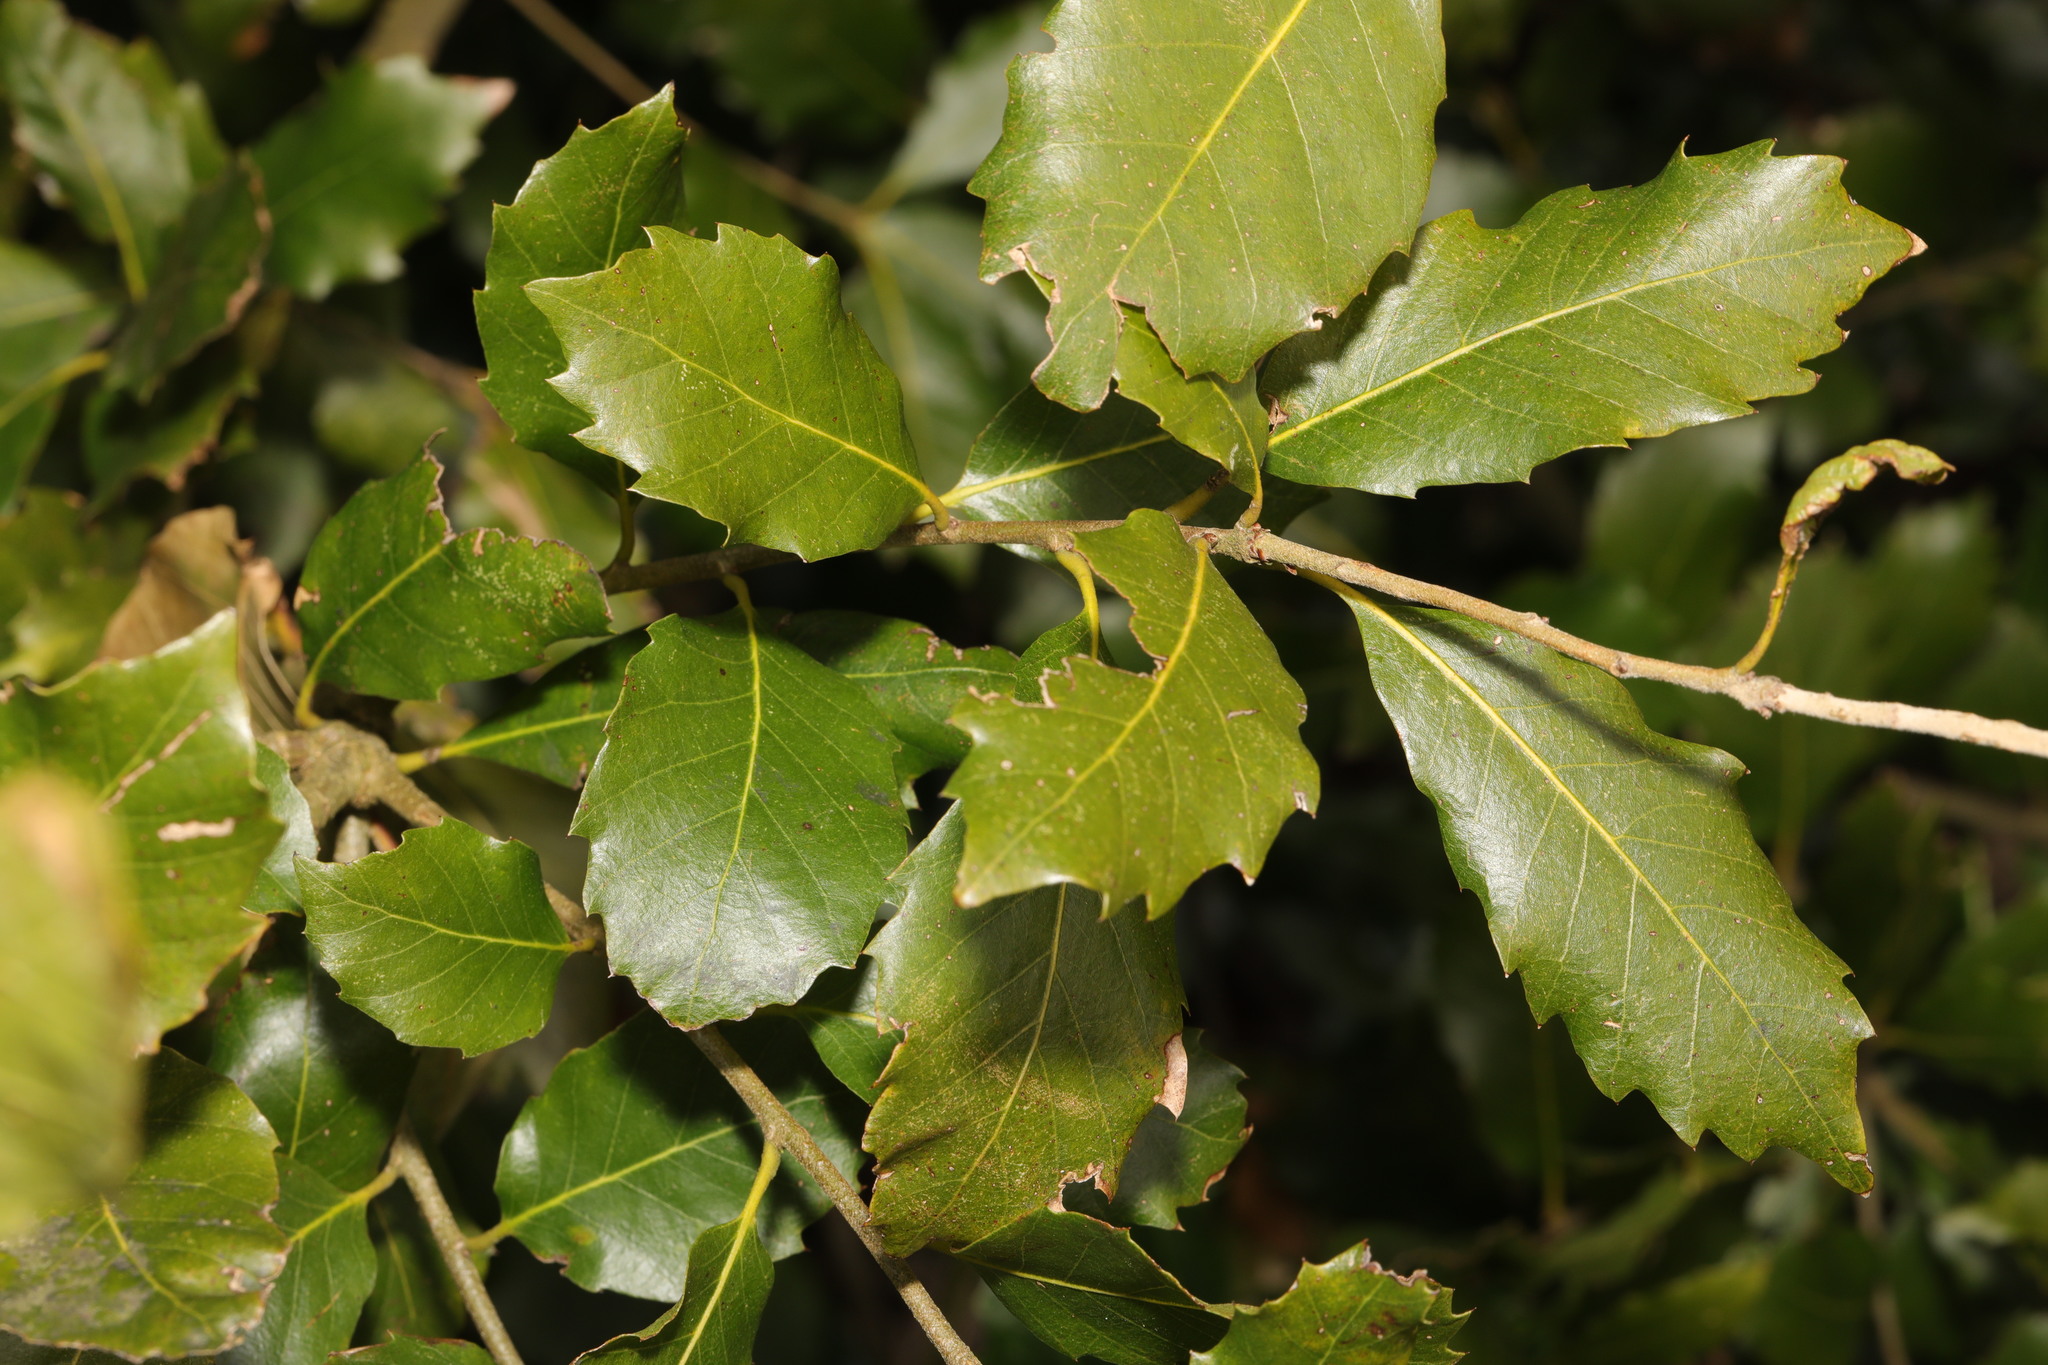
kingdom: Plantae
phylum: Tracheophyta
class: Magnoliopsida
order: Fagales
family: Fagaceae
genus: Quercus
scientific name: Quercus ilex
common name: Evergreen oak
